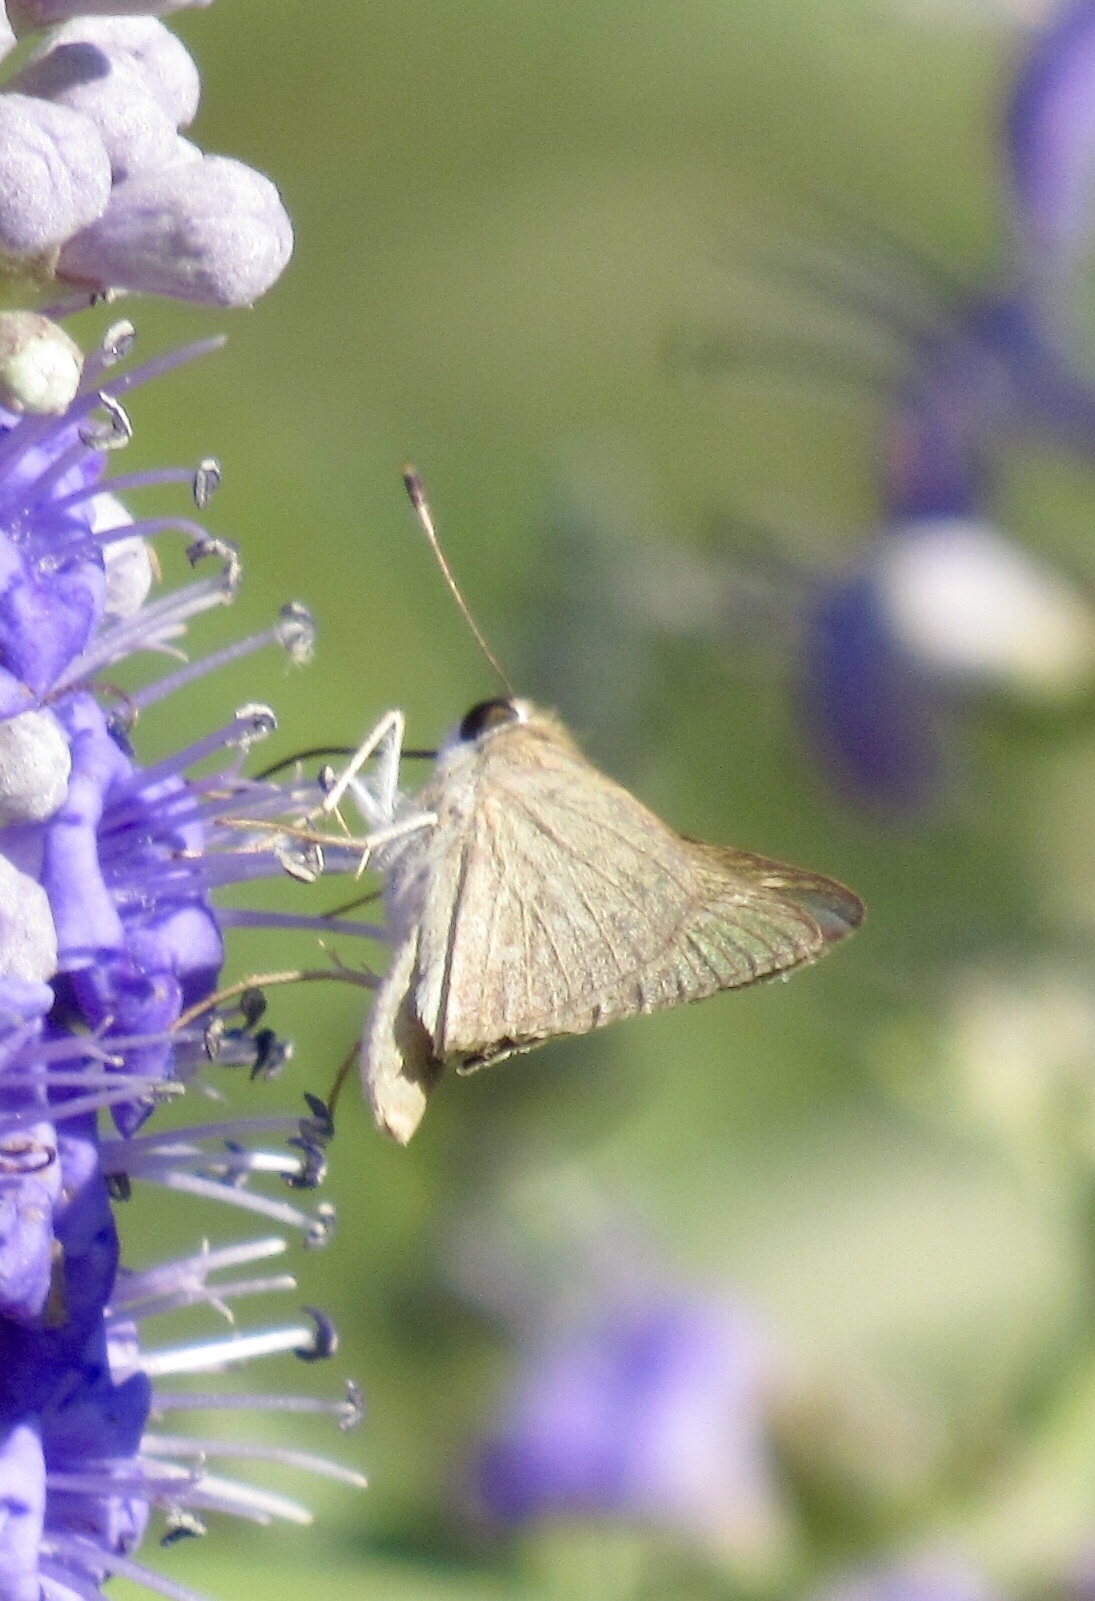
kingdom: Animalia
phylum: Arthropoda
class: Insecta
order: Lepidoptera
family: Hesperiidae
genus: Lerodea
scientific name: Lerodea eufala
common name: Eufala skipper
